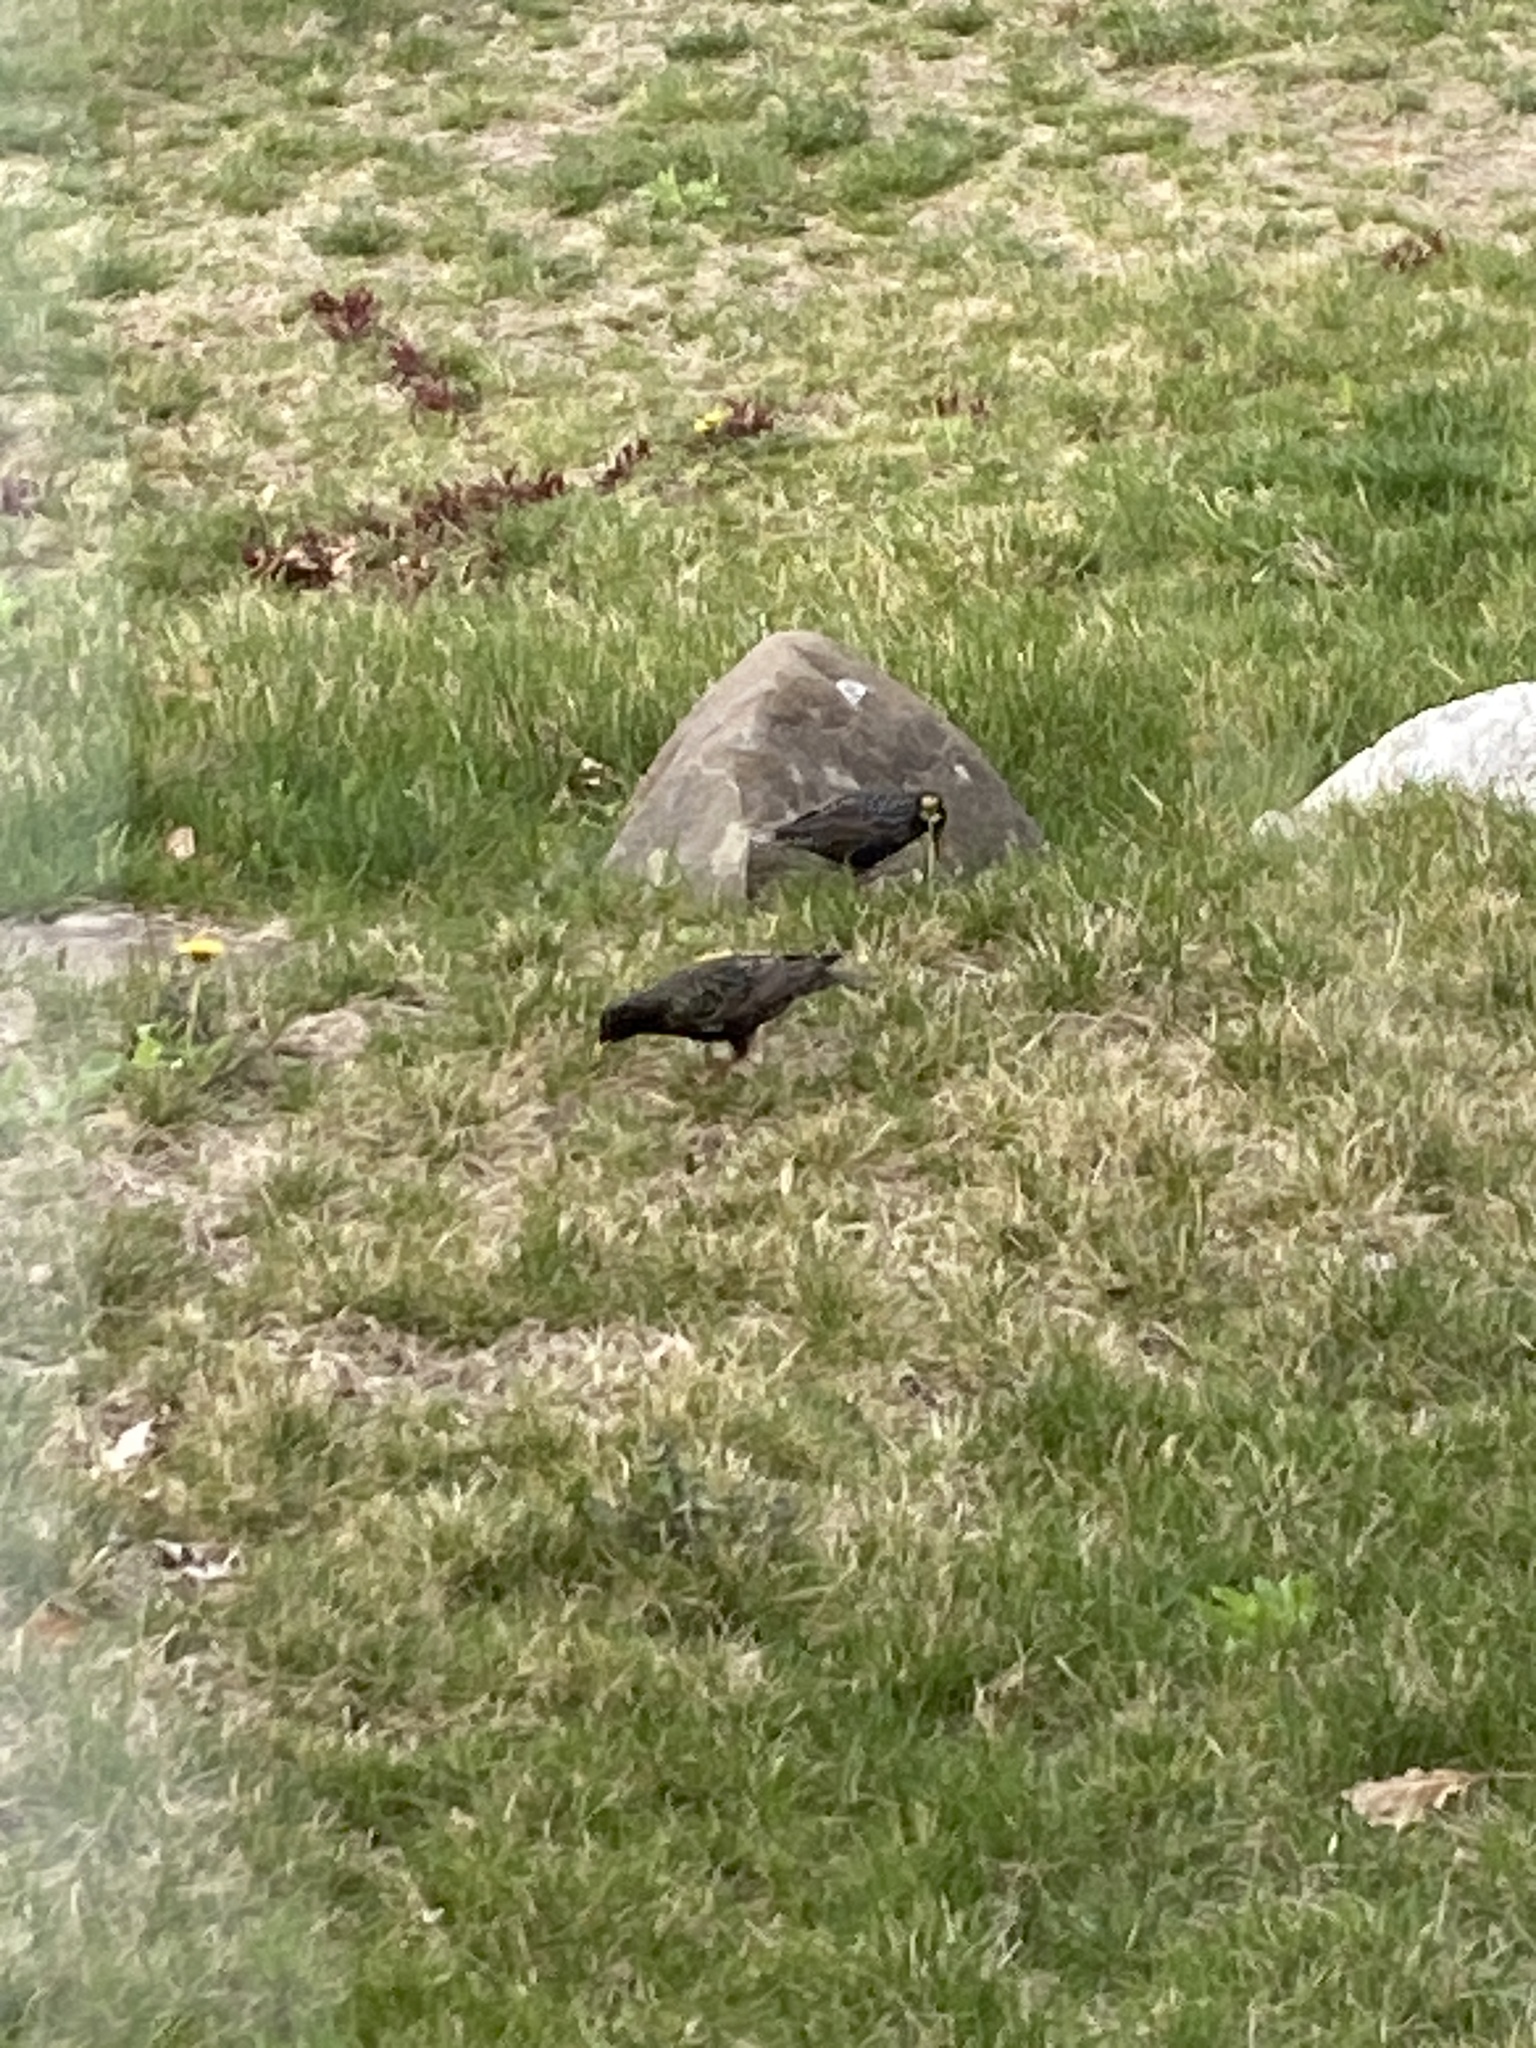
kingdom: Animalia
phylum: Chordata
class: Aves
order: Passeriformes
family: Sturnidae
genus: Sturnus
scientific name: Sturnus vulgaris
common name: Common starling
